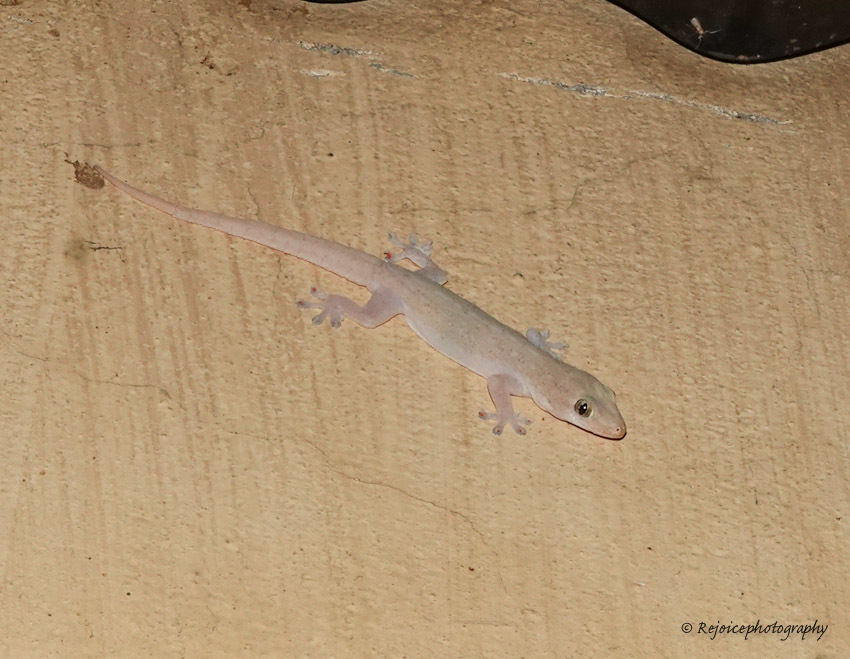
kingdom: Animalia
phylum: Chordata
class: Squamata
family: Gekkonidae
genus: Hemidactylus
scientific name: Hemidactylus garnotii
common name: Indo-pacific gecko
